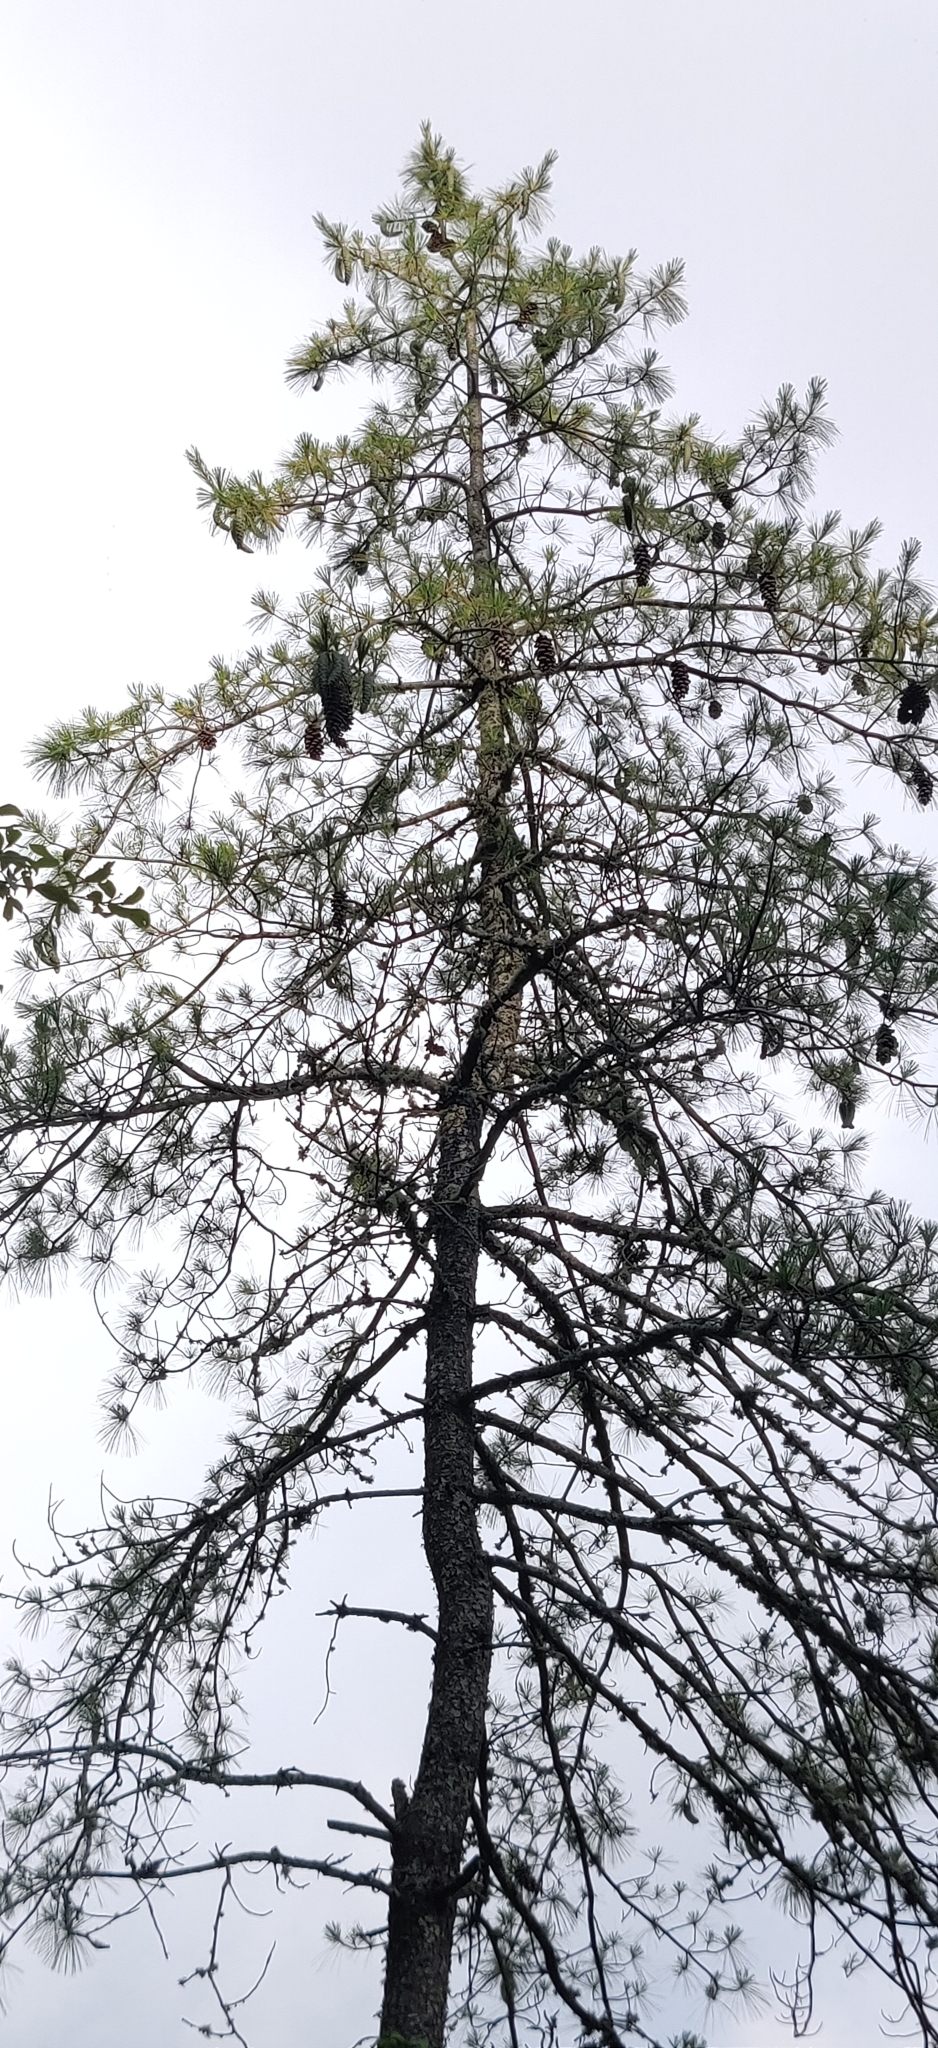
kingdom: Plantae
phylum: Tracheophyta
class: Pinopsida
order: Pinales
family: Pinaceae
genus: Pinus
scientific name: Pinus wallichiana
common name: Bhutan pine
